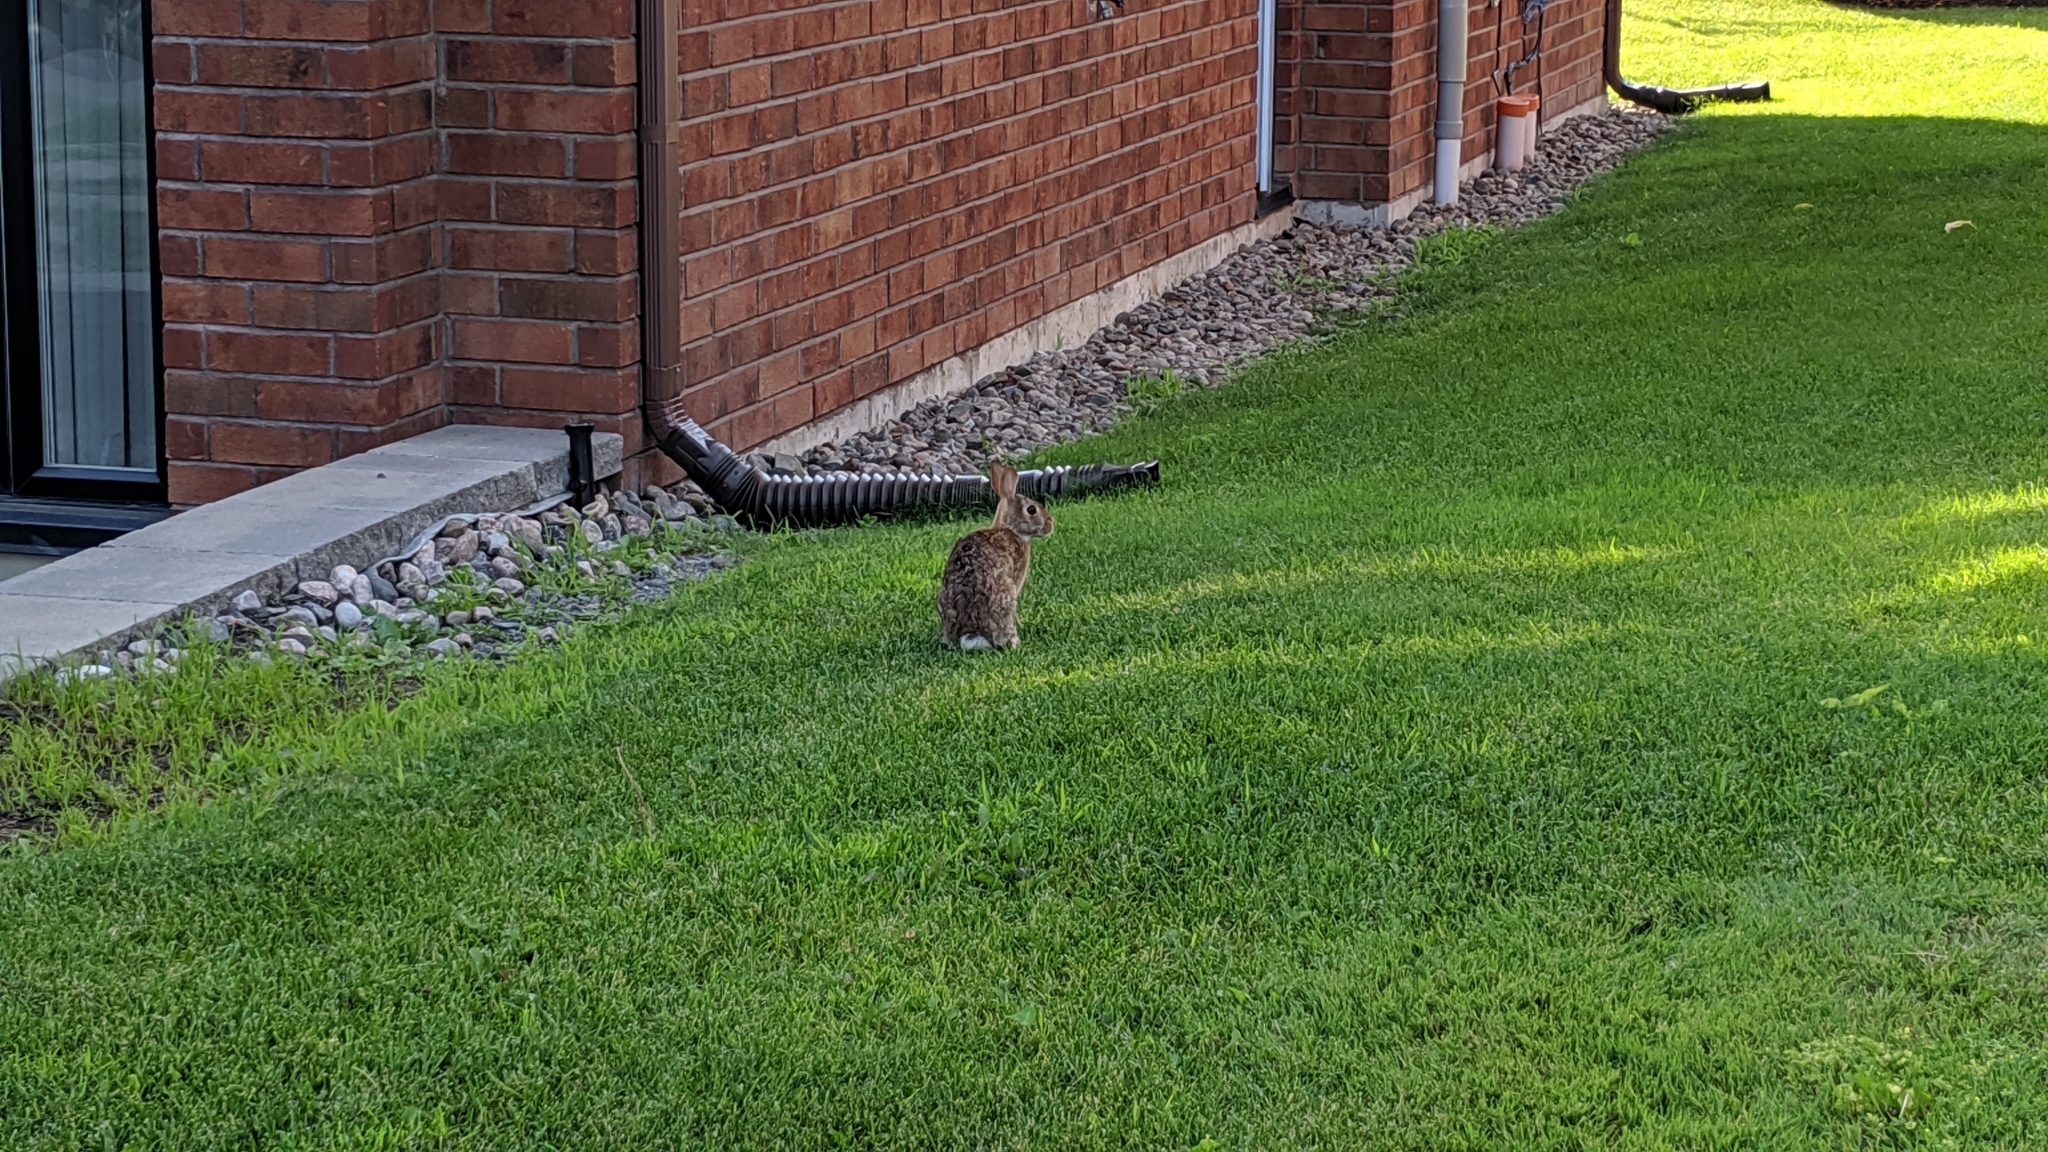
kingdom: Animalia
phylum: Chordata
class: Mammalia
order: Lagomorpha
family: Leporidae
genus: Sylvilagus
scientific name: Sylvilagus floridanus
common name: Eastern cottontail
